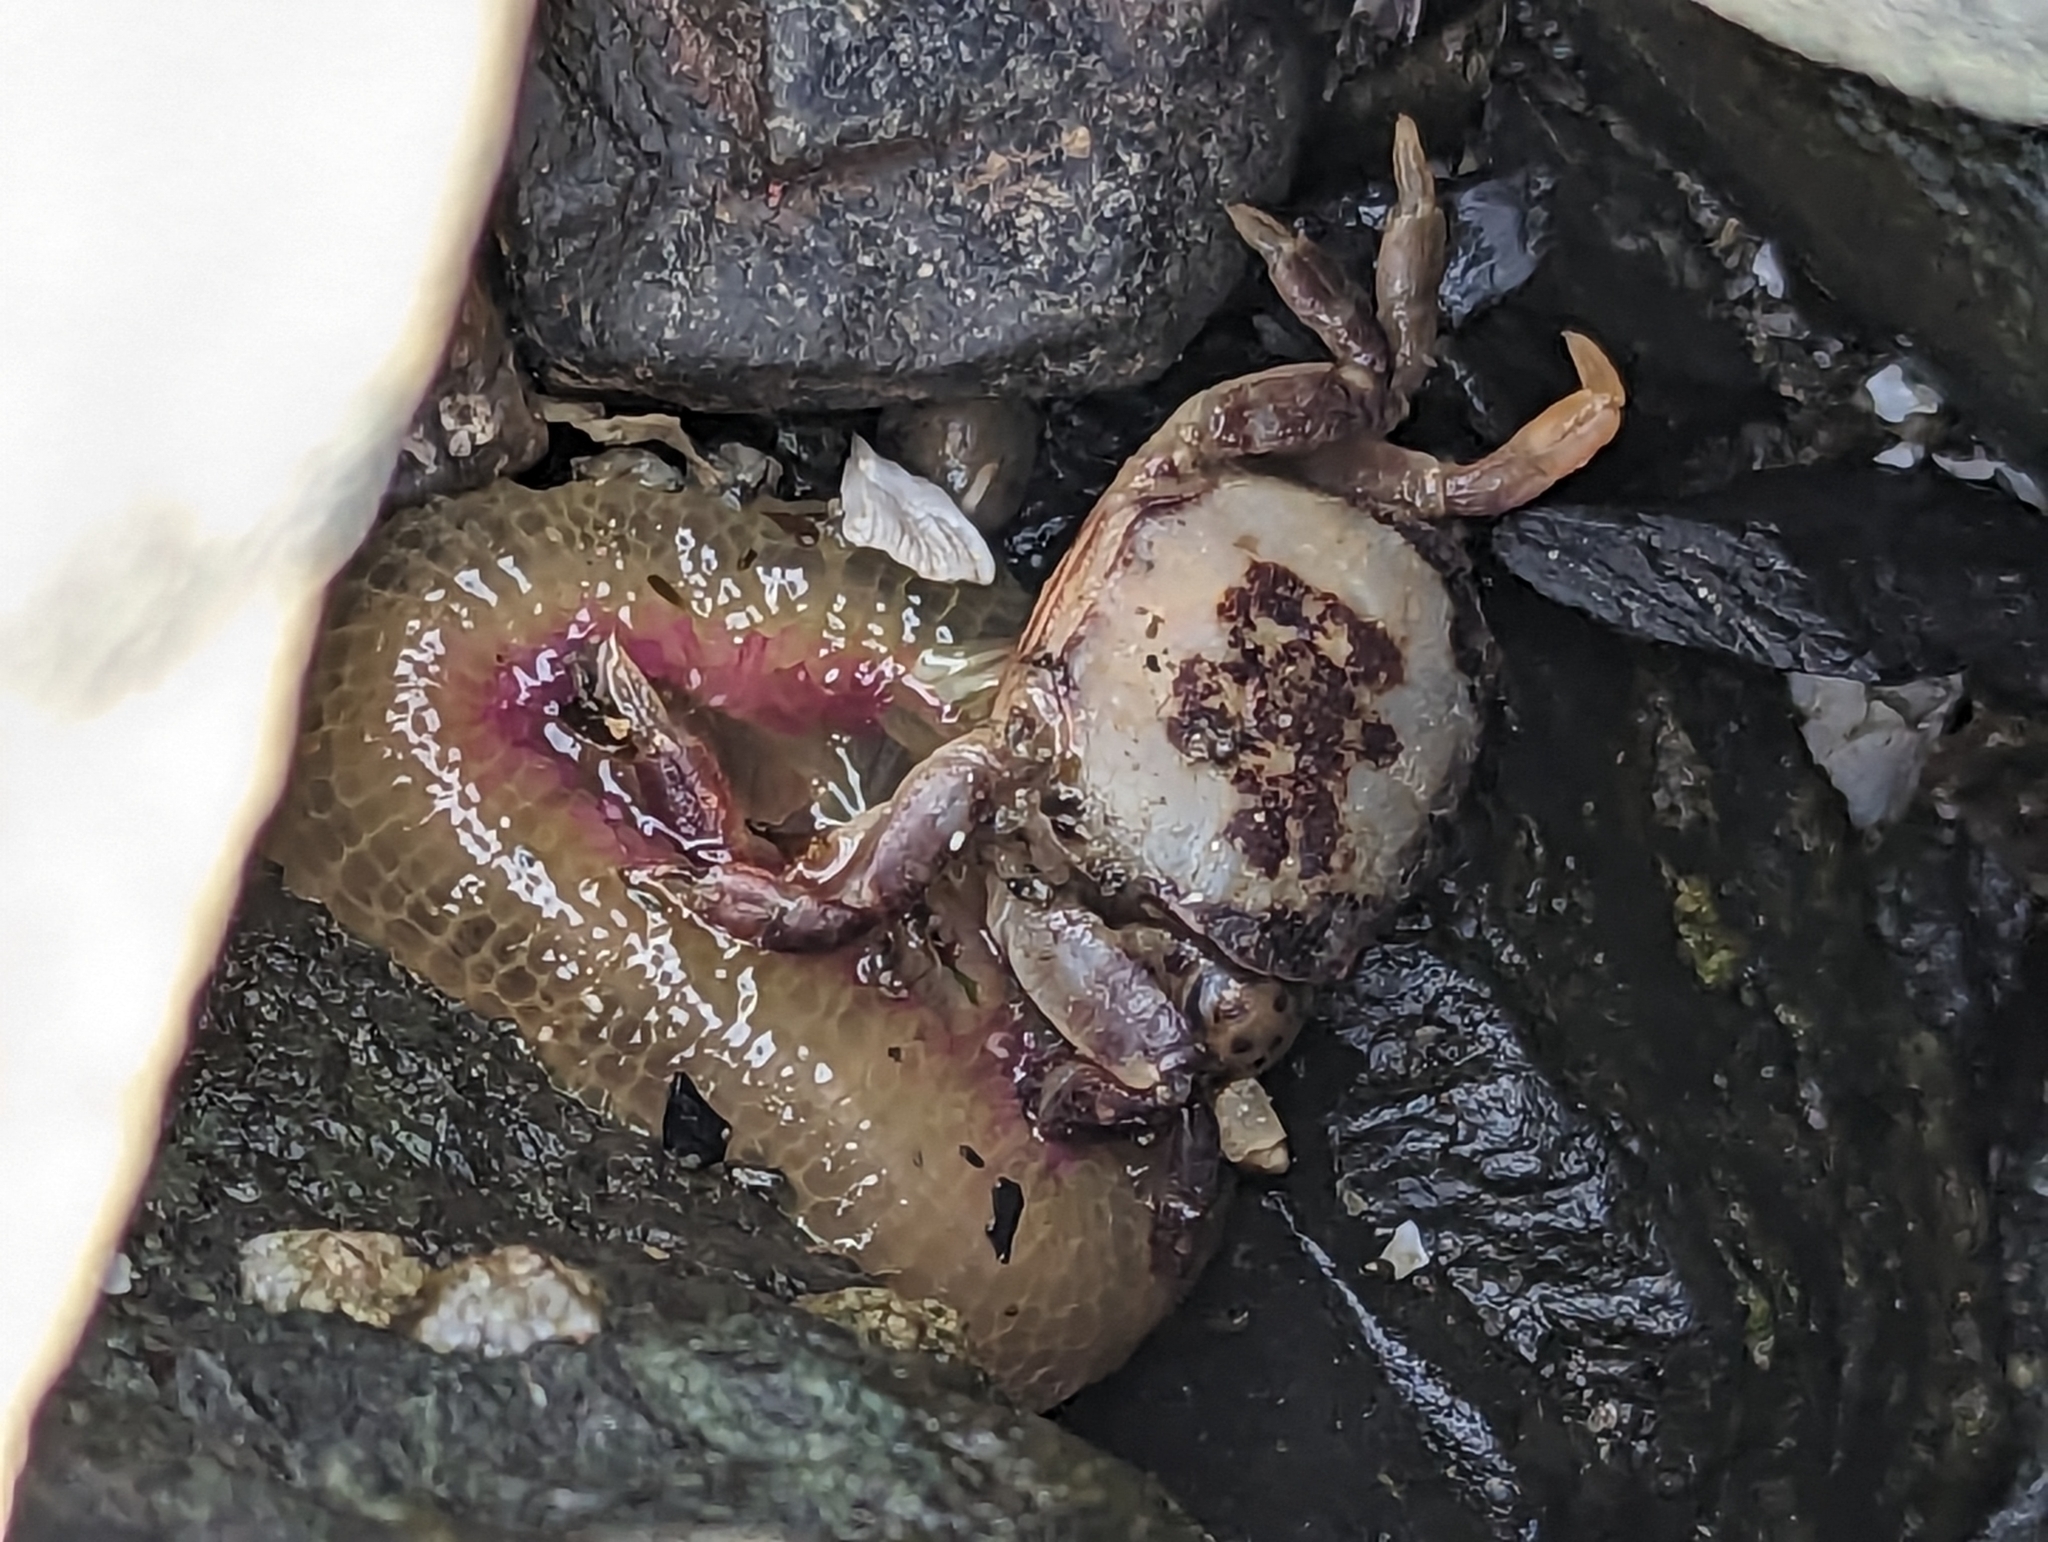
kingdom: Animalia
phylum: Arthropoda
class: Malacostraca
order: Decapoda
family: Varunidae
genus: Hemigrapsus
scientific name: Hemigrapsus nudus
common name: Purple shore crab
